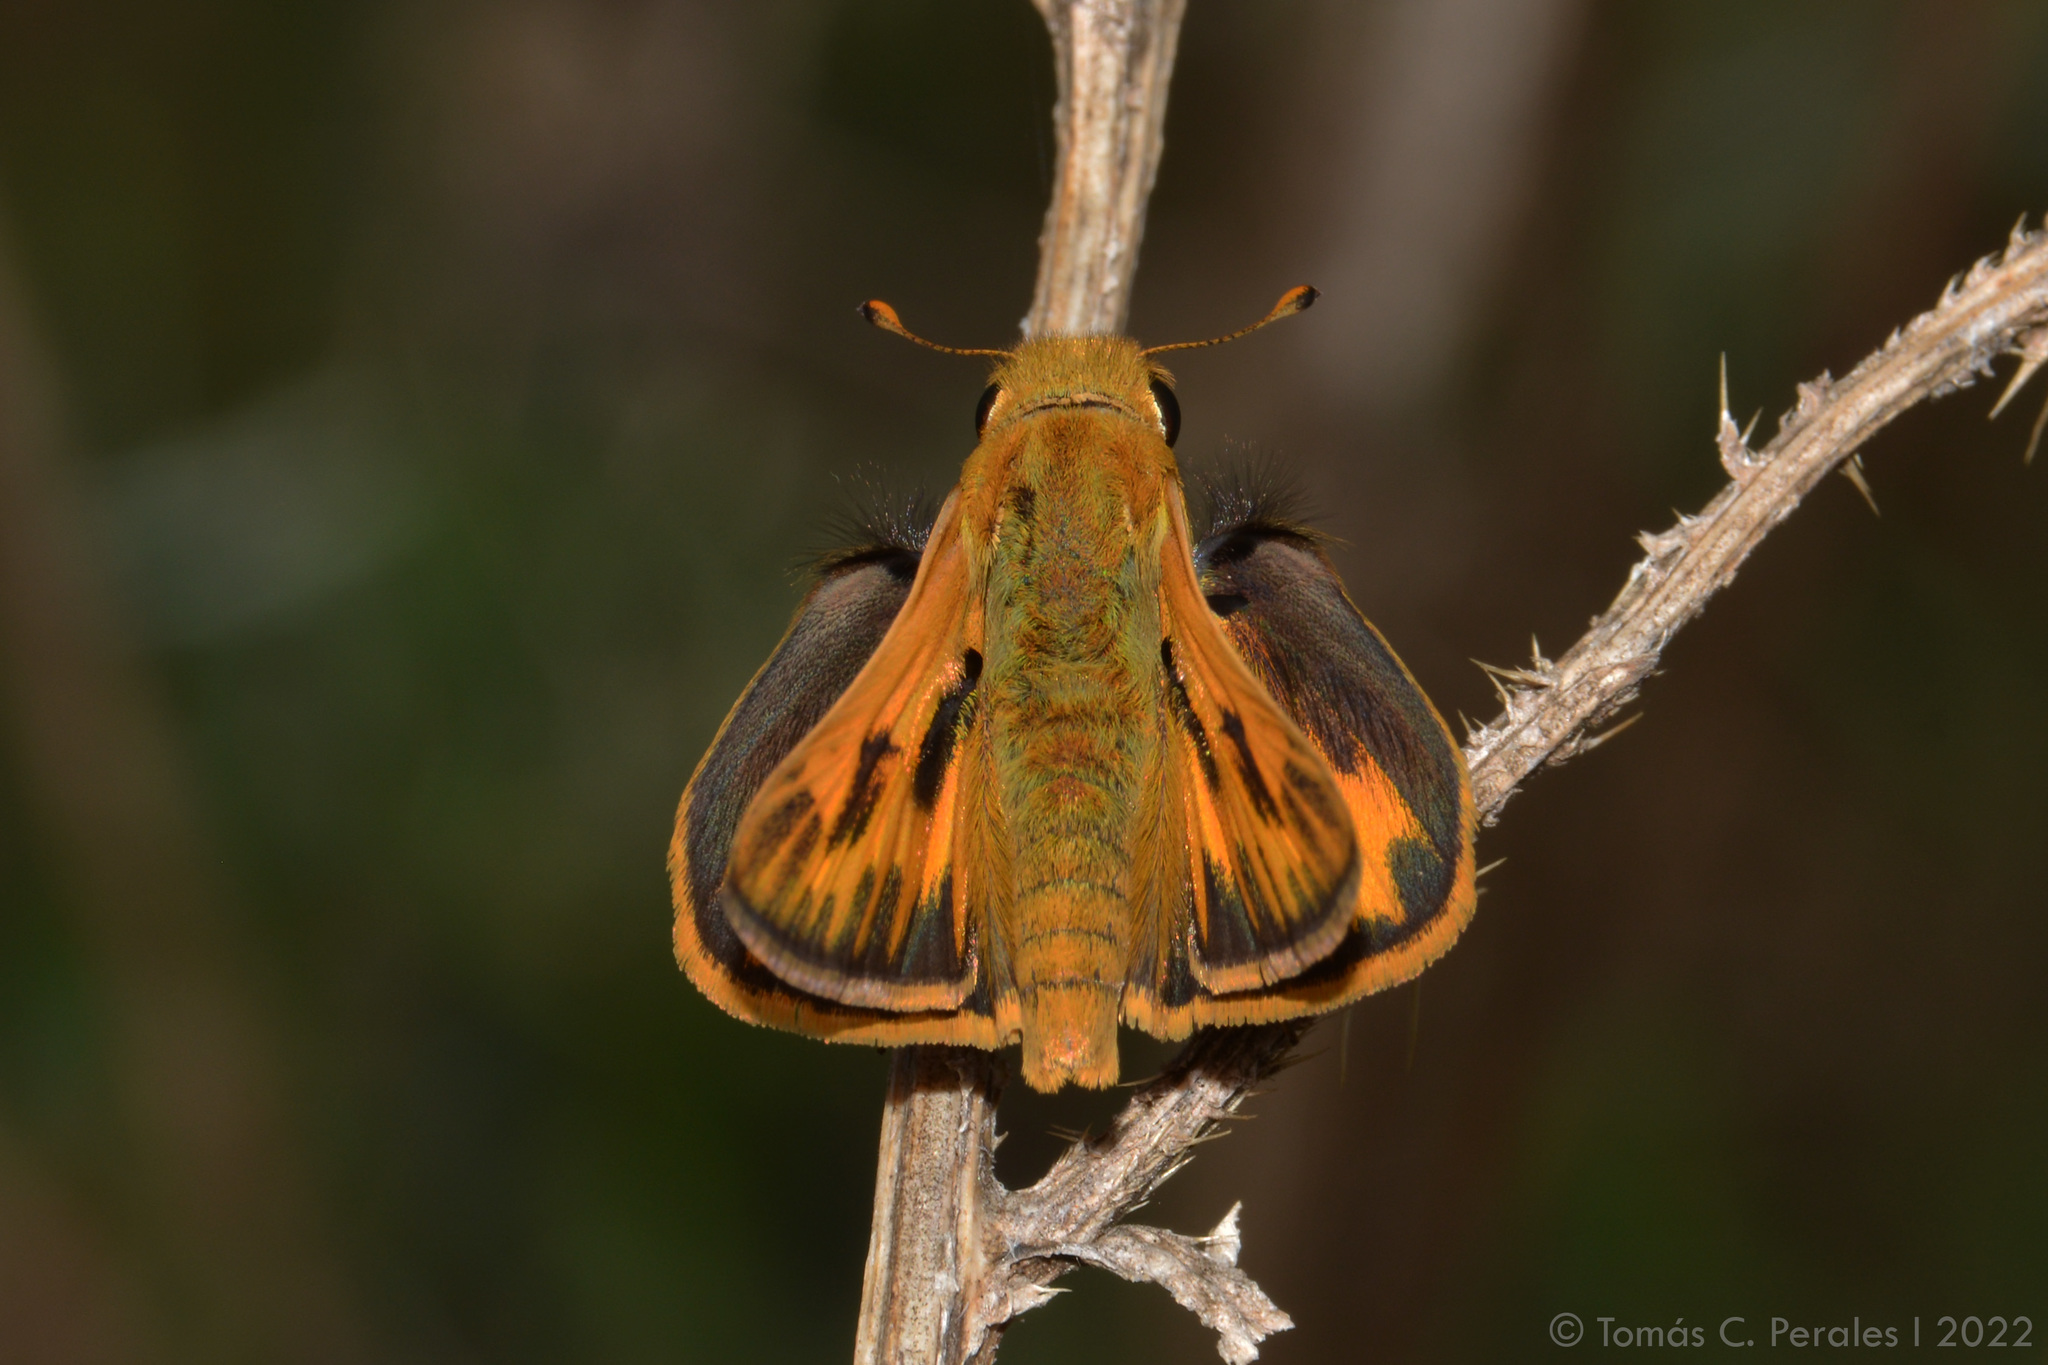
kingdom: Animalia
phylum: Arthropoda
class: Insecta
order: Lepidoptera
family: Hesperiidae
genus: Hylephila
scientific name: Hylephila phyleus
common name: Fiery skipper
